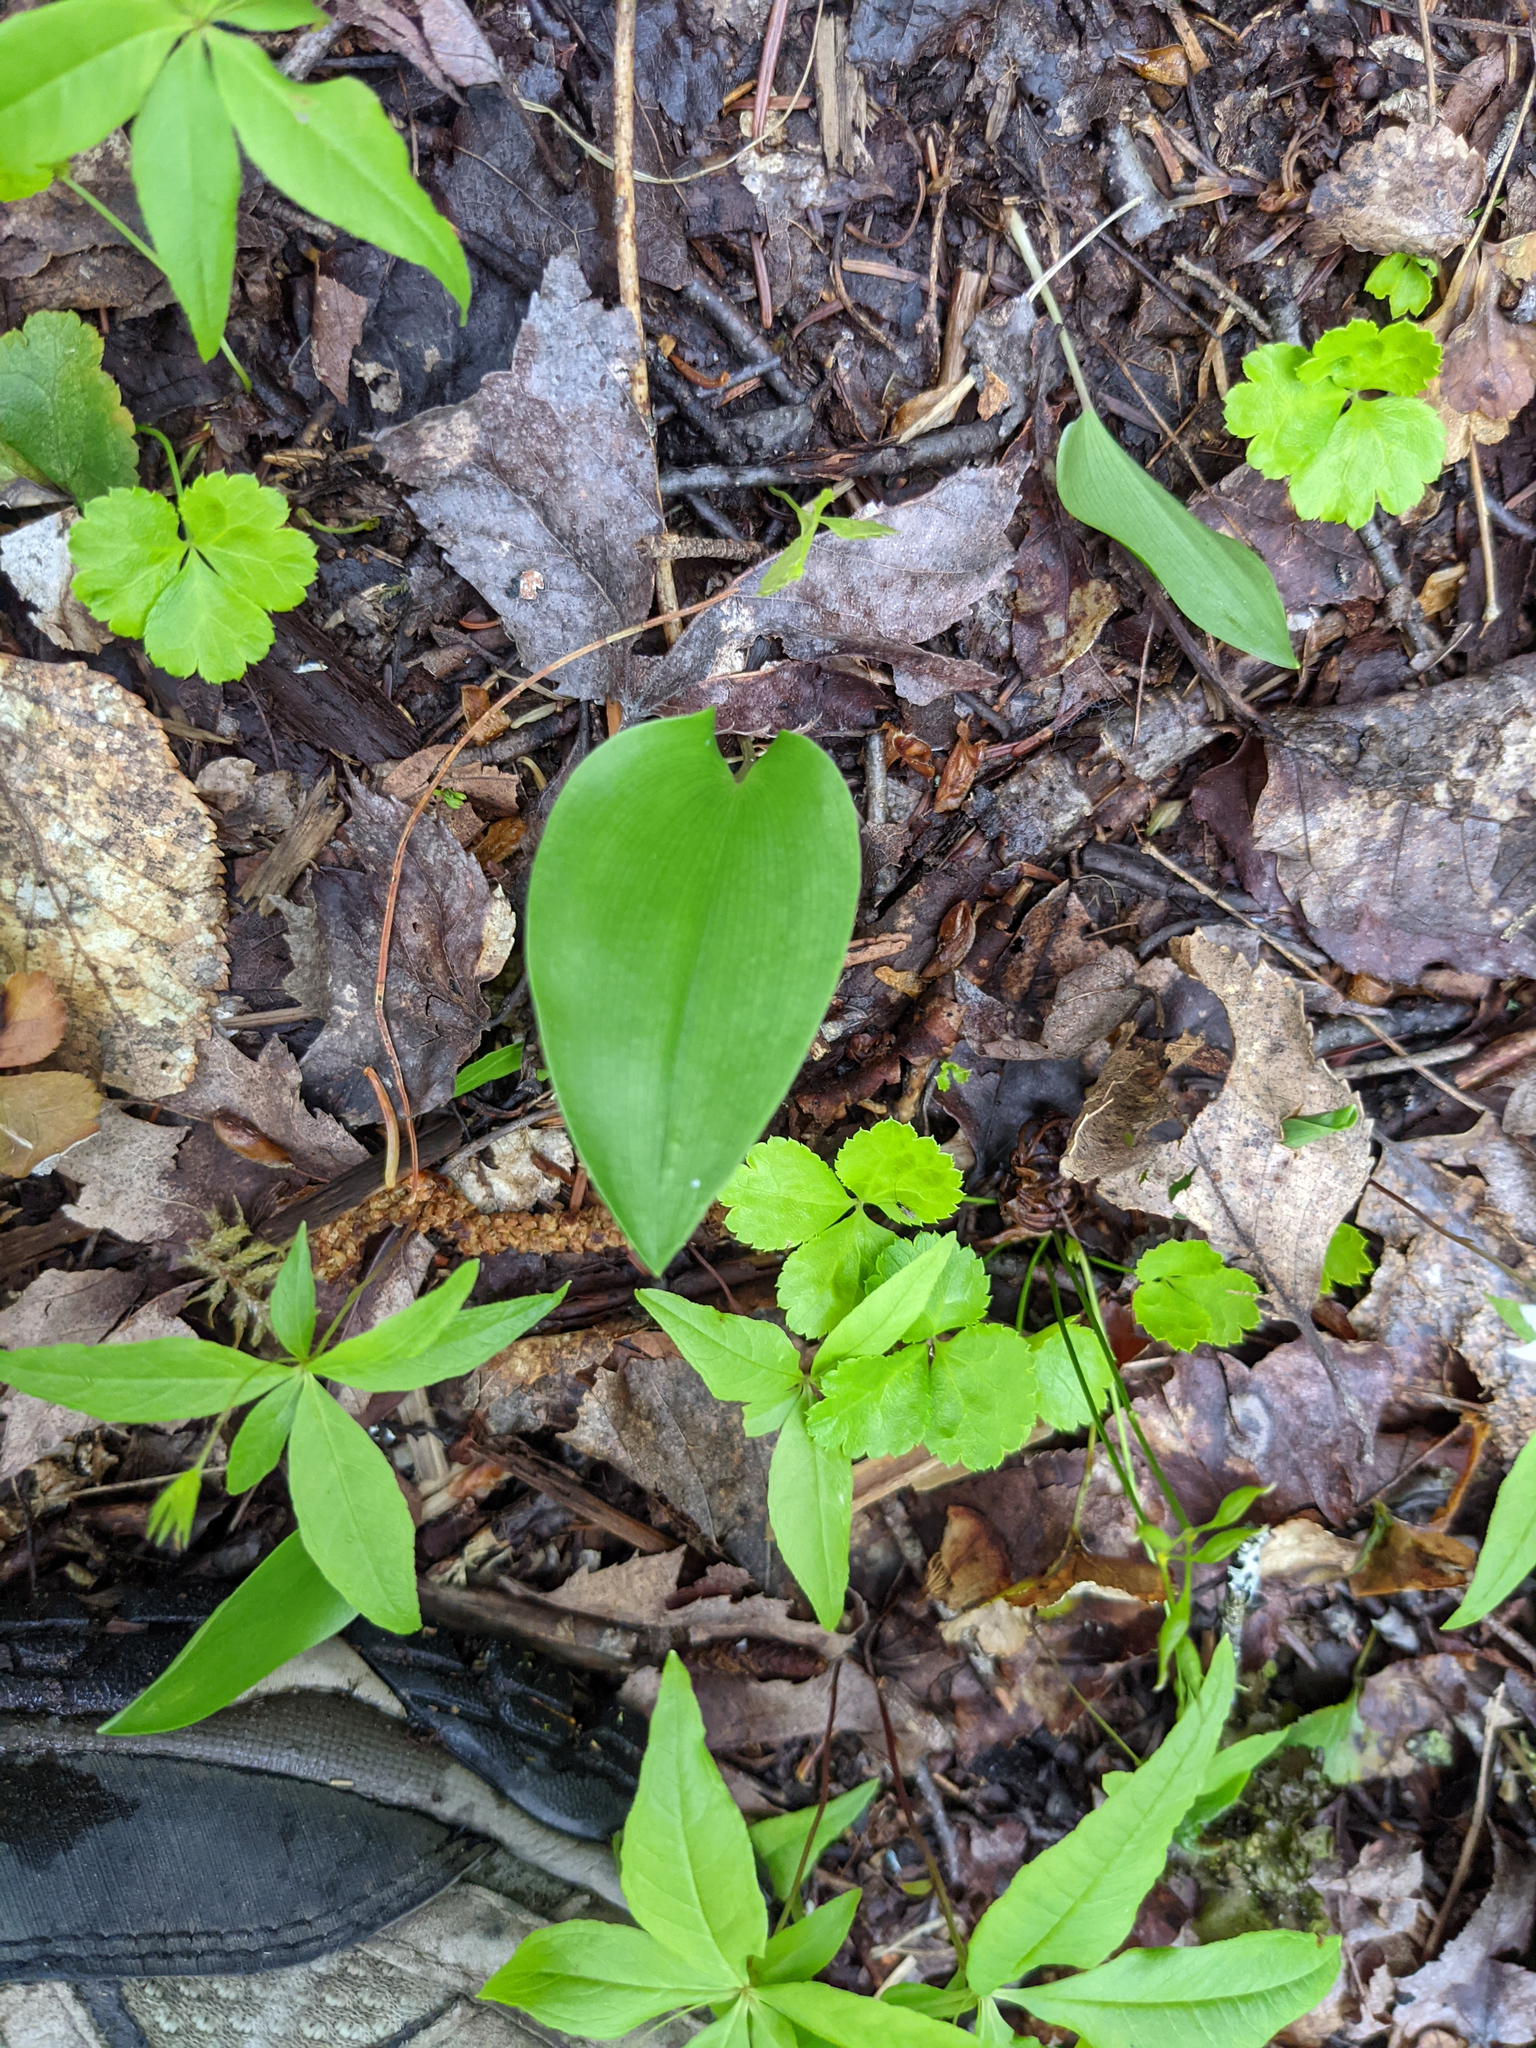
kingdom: Plantae
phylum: Tracheophyta
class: Liliopsida
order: Asparagales
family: Asparagaceae
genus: Maianthemum
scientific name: Maianthemum canadense
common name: False lily-of-the-valley
